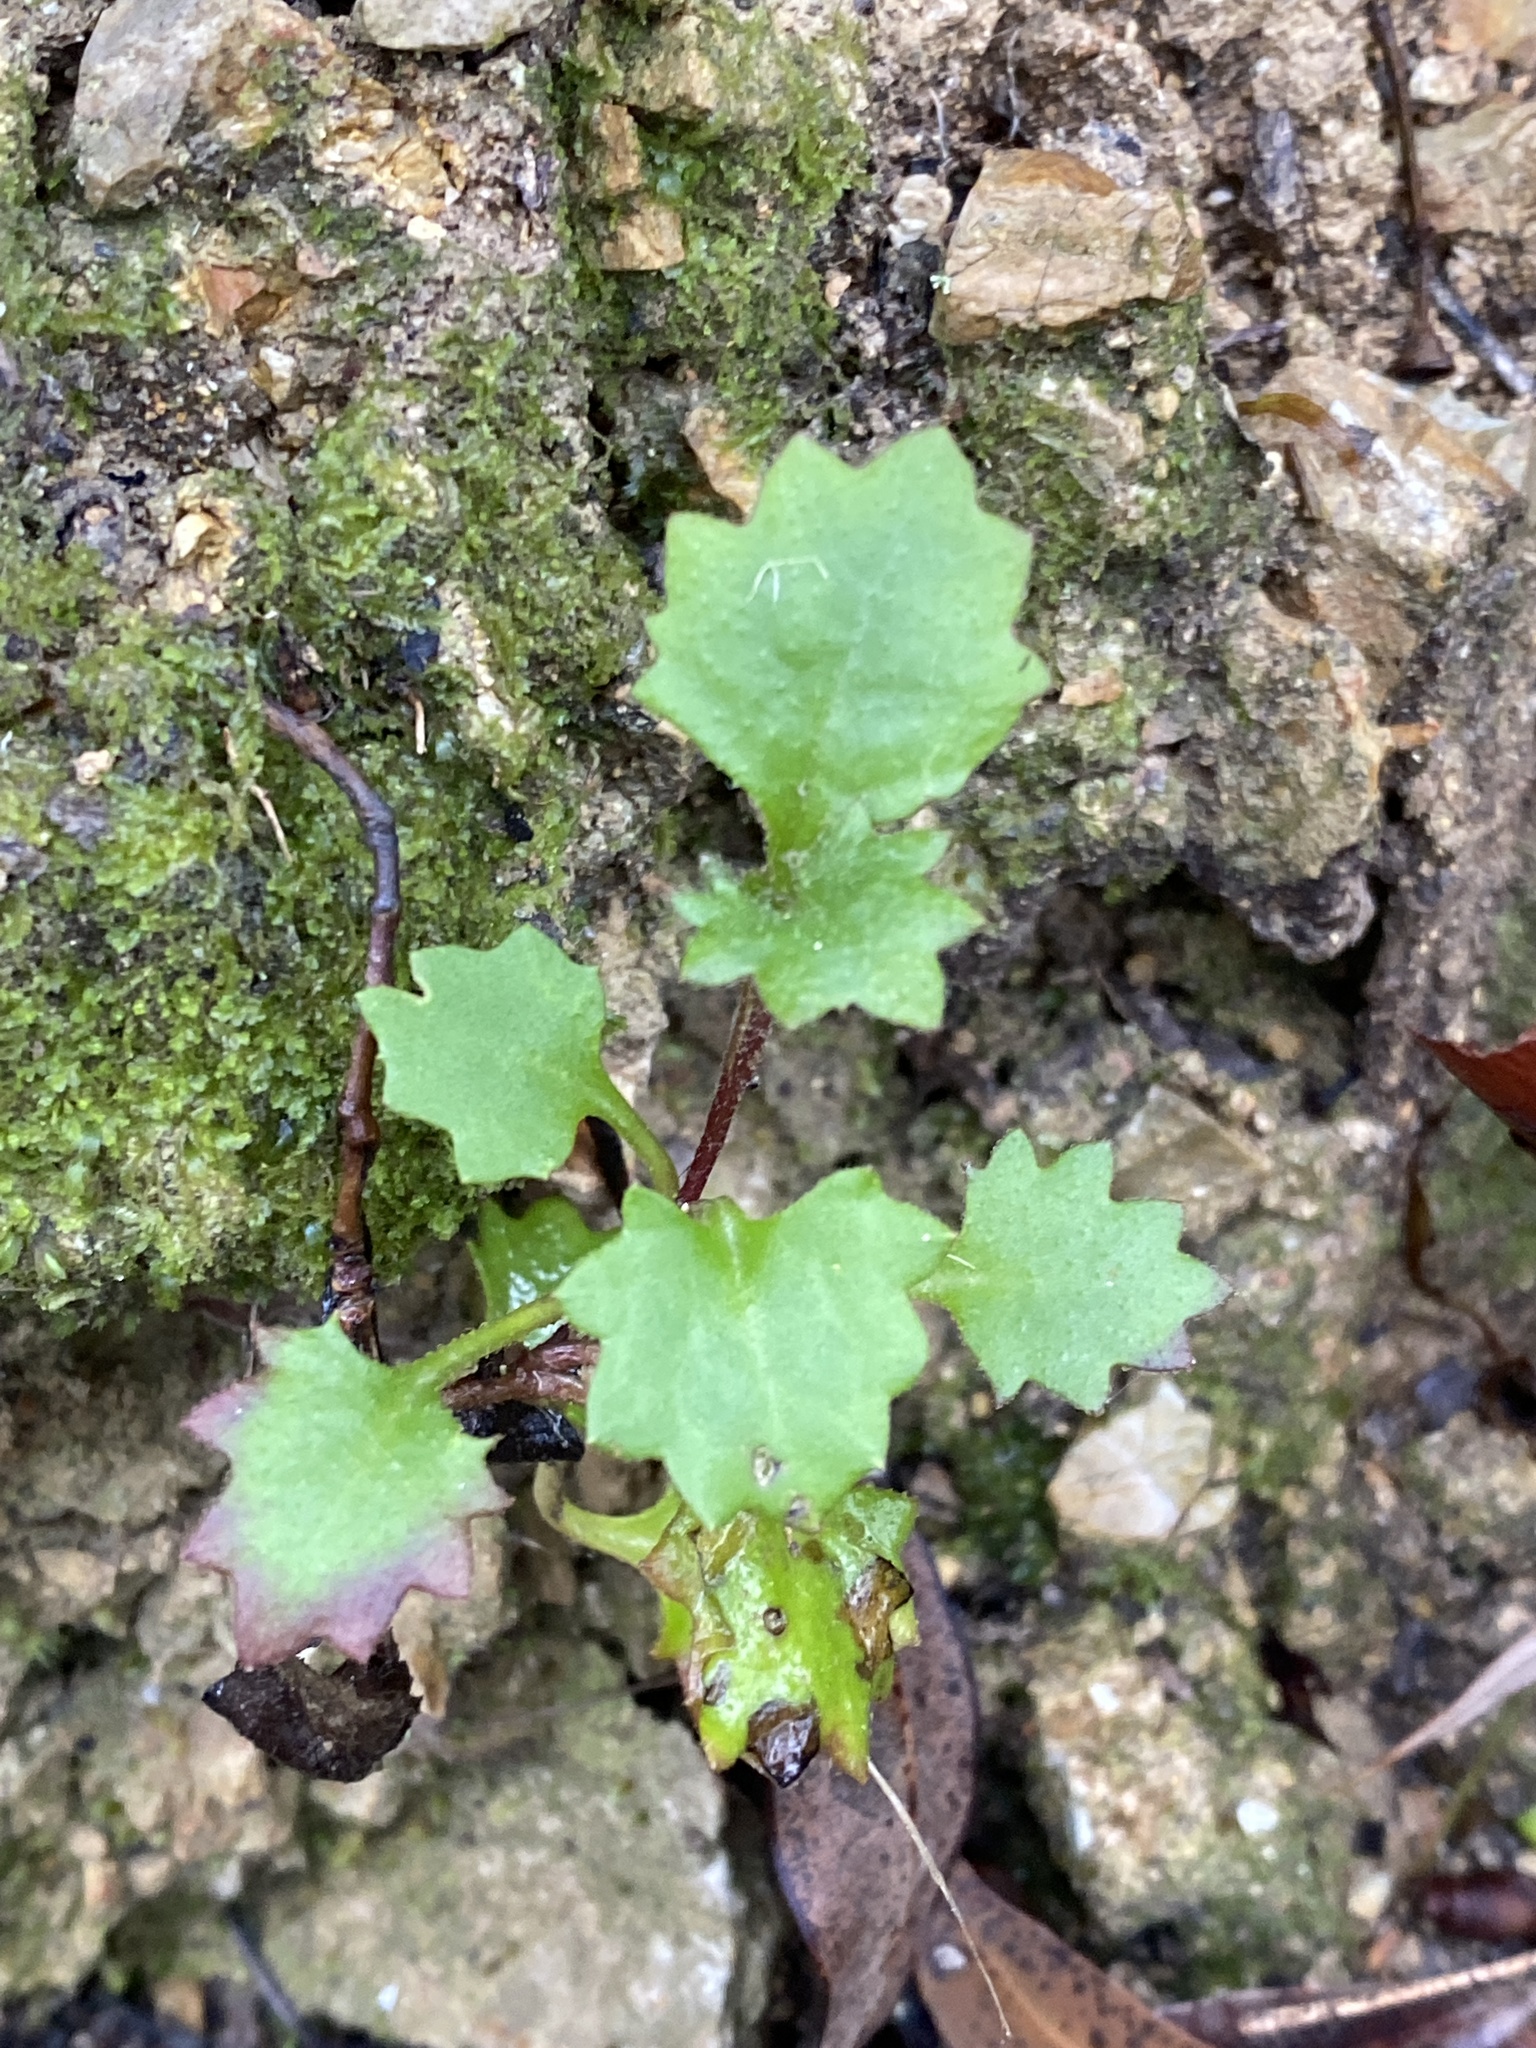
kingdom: Plantae
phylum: Tracheophyta
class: Magnoliopsida
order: Asterales
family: Goodeniaceae
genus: Goodenia
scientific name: Goodenia rotundifolia
